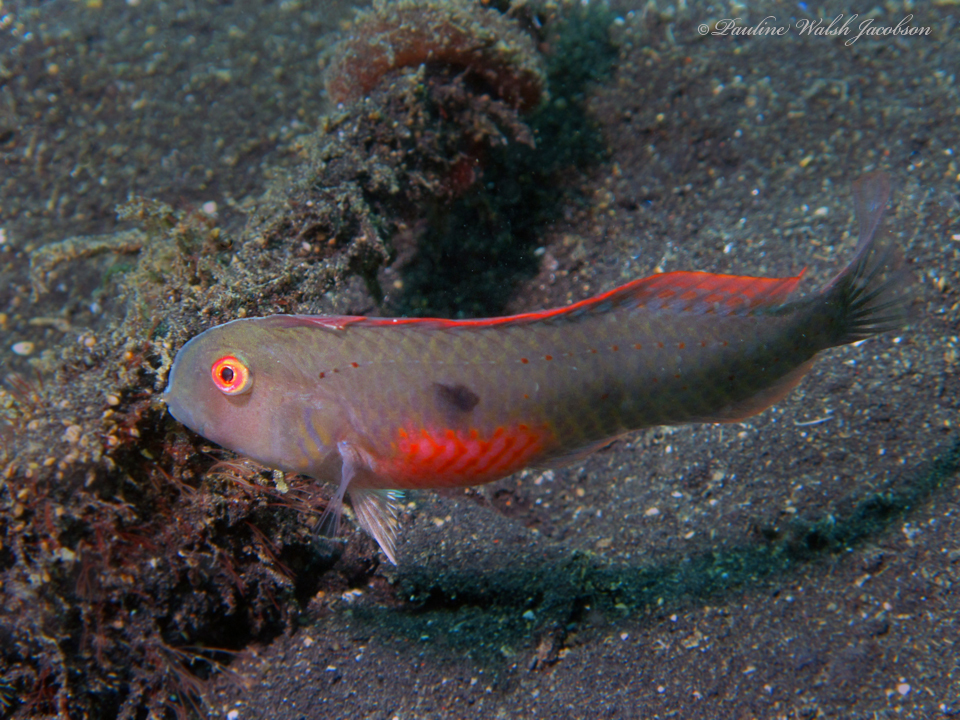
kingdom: Animalia
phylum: Chordata
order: Perciformes
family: Labridae
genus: Iniistius
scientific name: Iniistius pentadactylus
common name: Fivefinger razorfish
